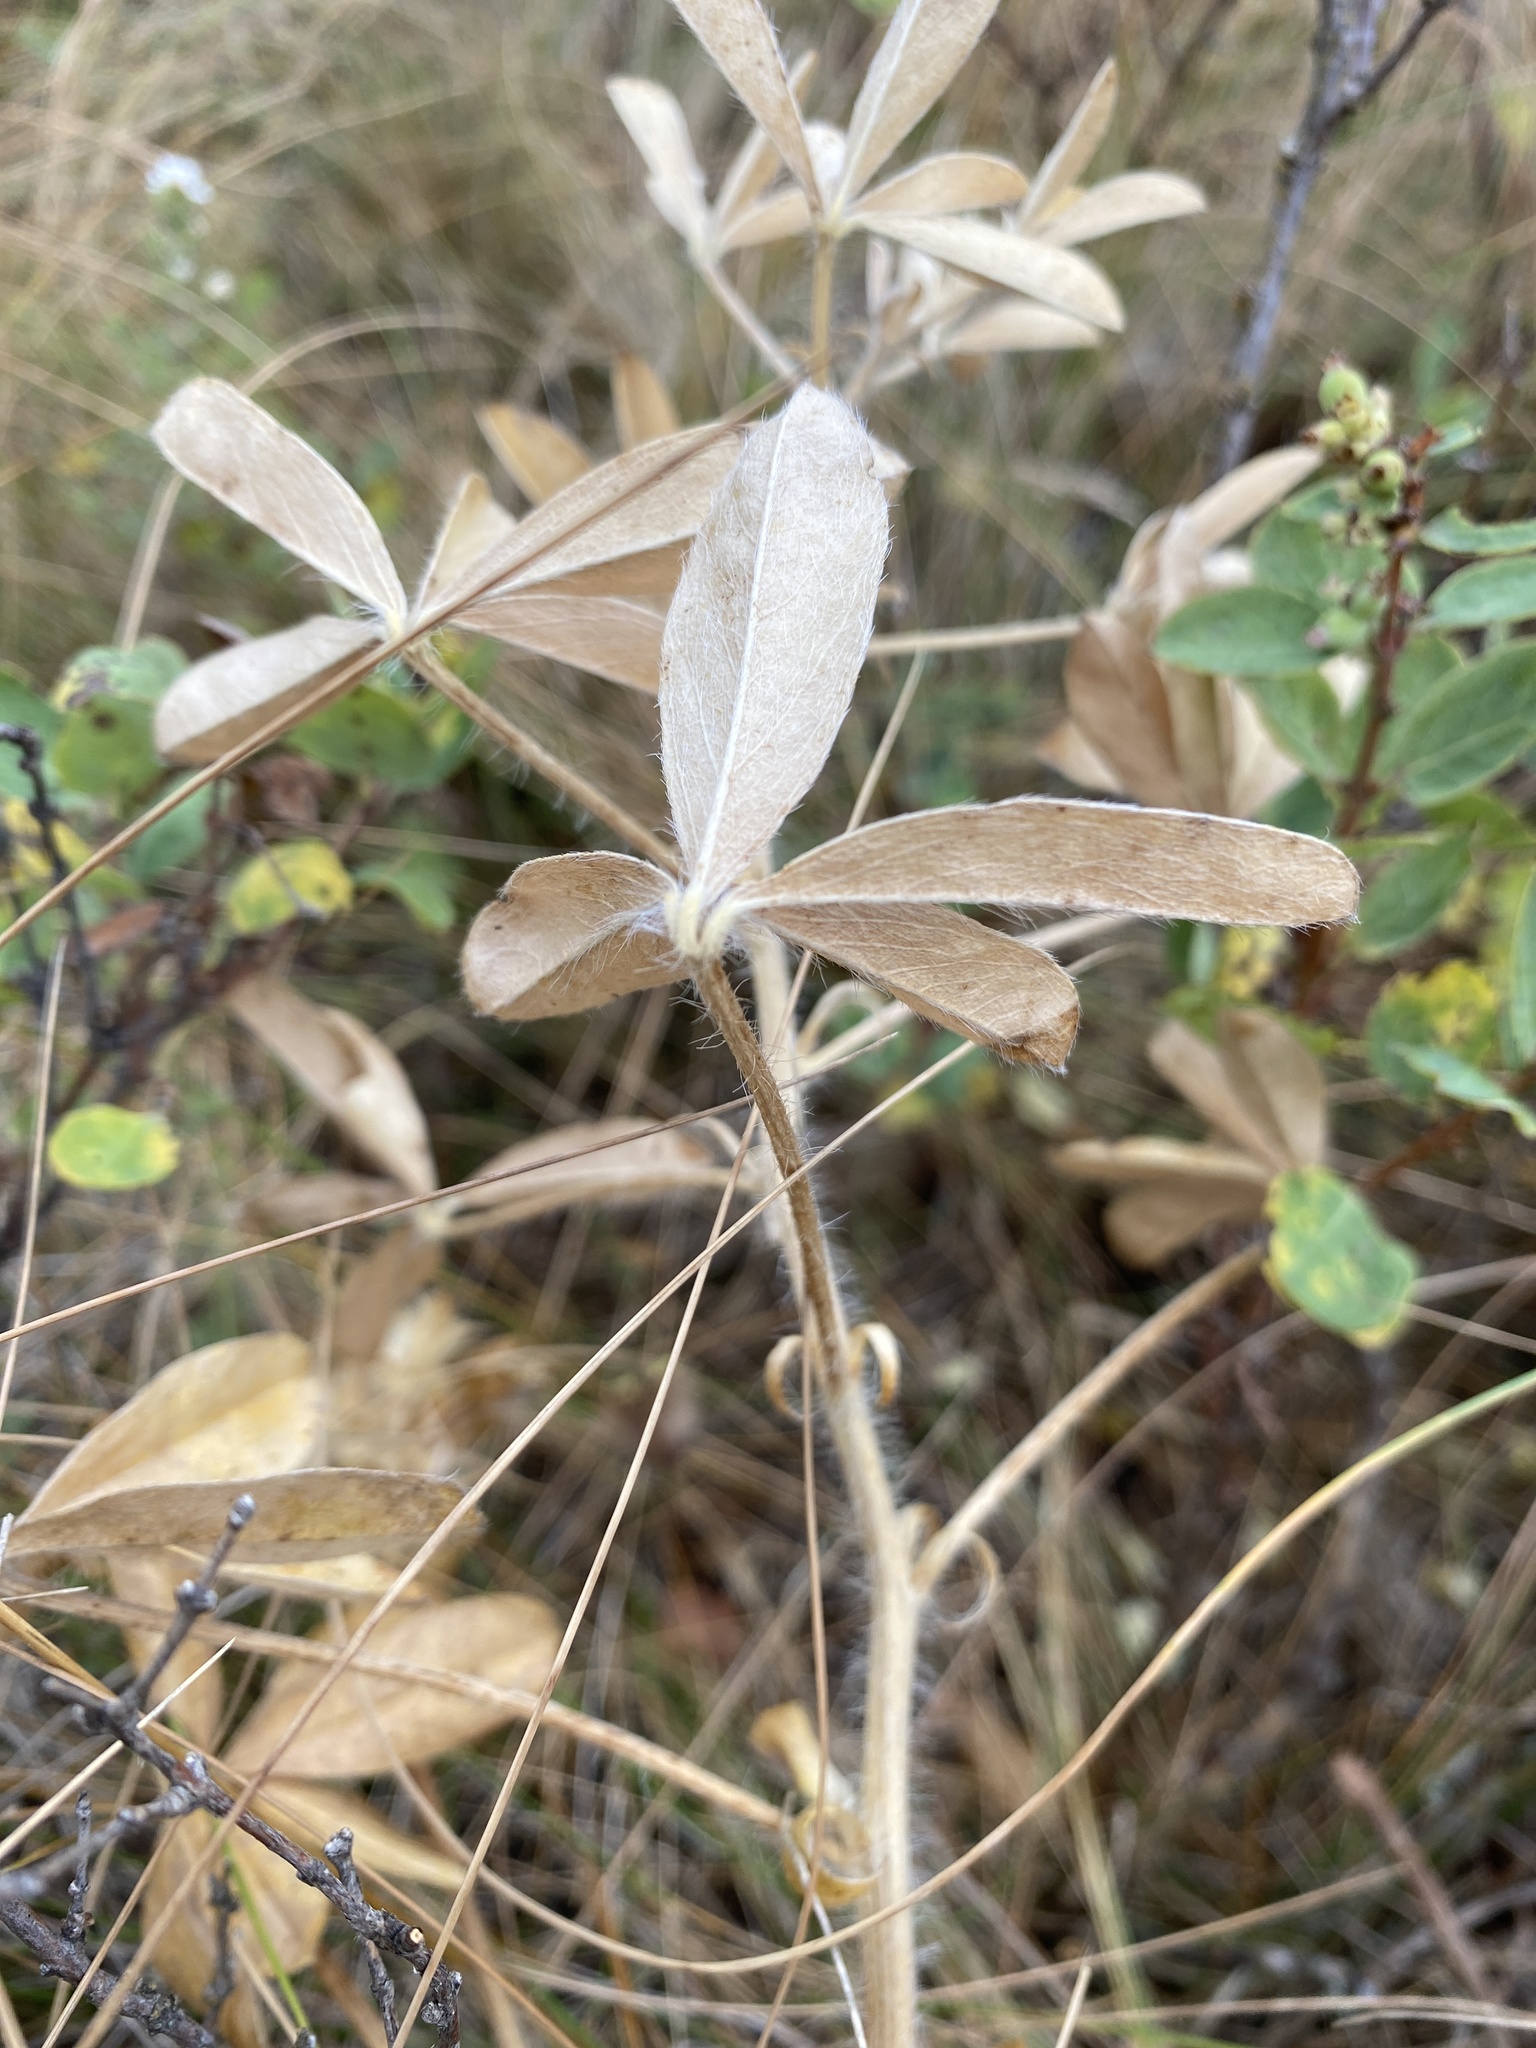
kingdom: Plantae
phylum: Tracheophyta
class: Magnoliopsida
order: Fabales
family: Fabaceae
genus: Pediomelum
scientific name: Pediomelum esculentum
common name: Indian-turnip
